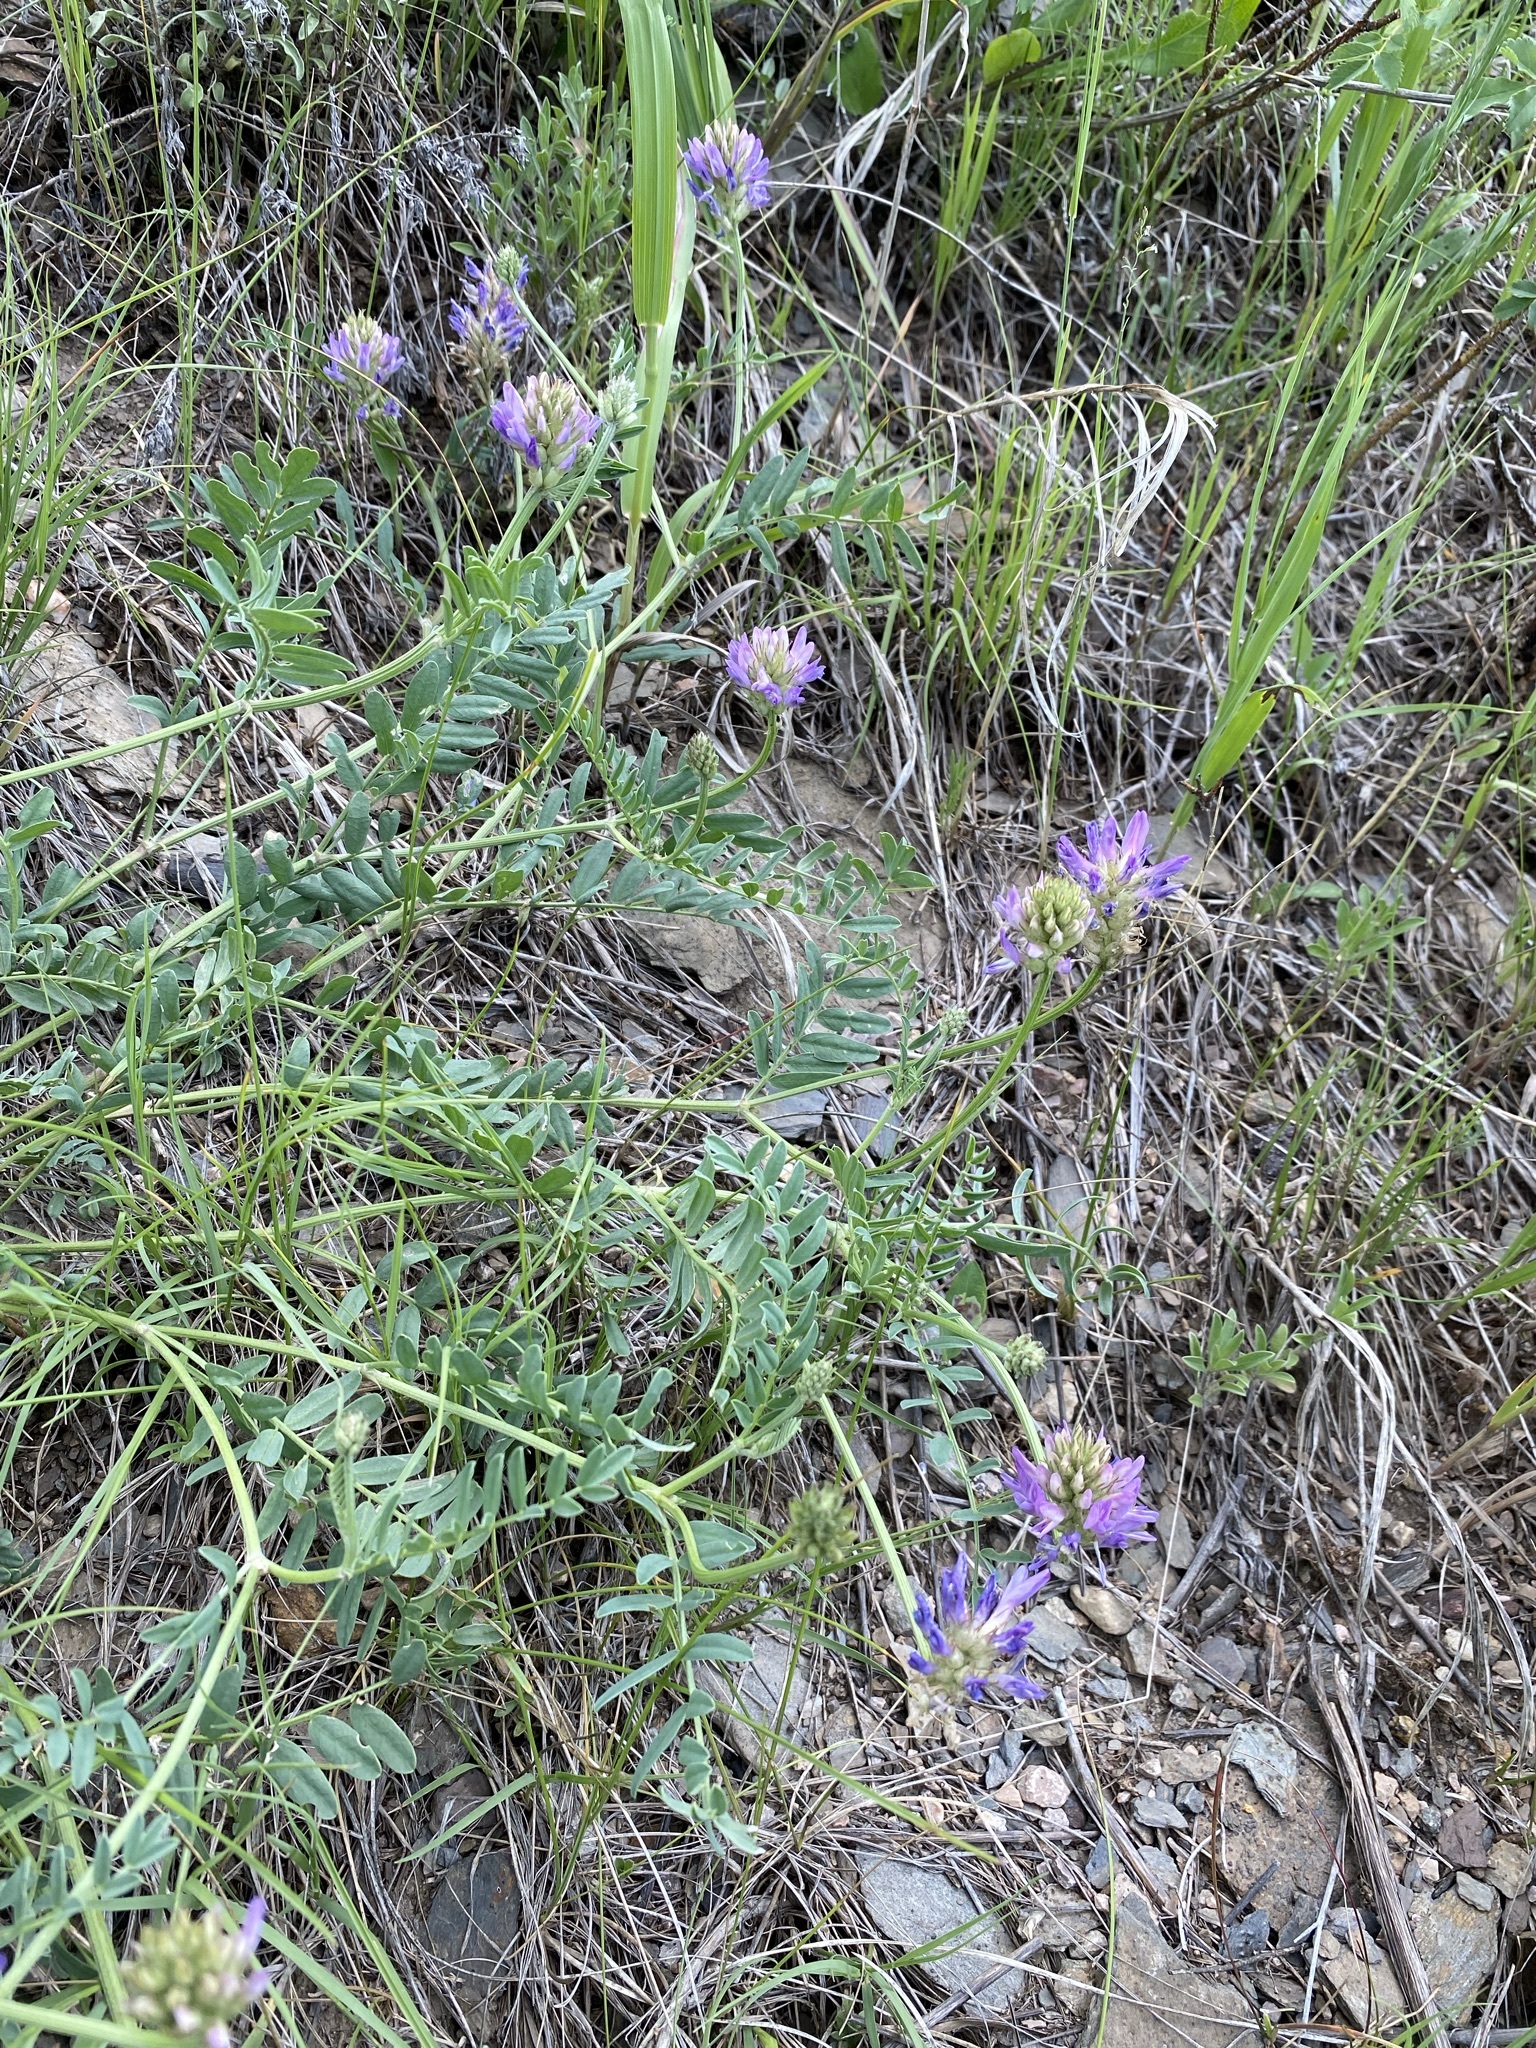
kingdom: Plantae
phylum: Tracheophyta
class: Magnoliopsida
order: Fabales
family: Fabaceae
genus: Astragalus
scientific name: Astragalus laxmannii
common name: Laxmann's milk-vetch
